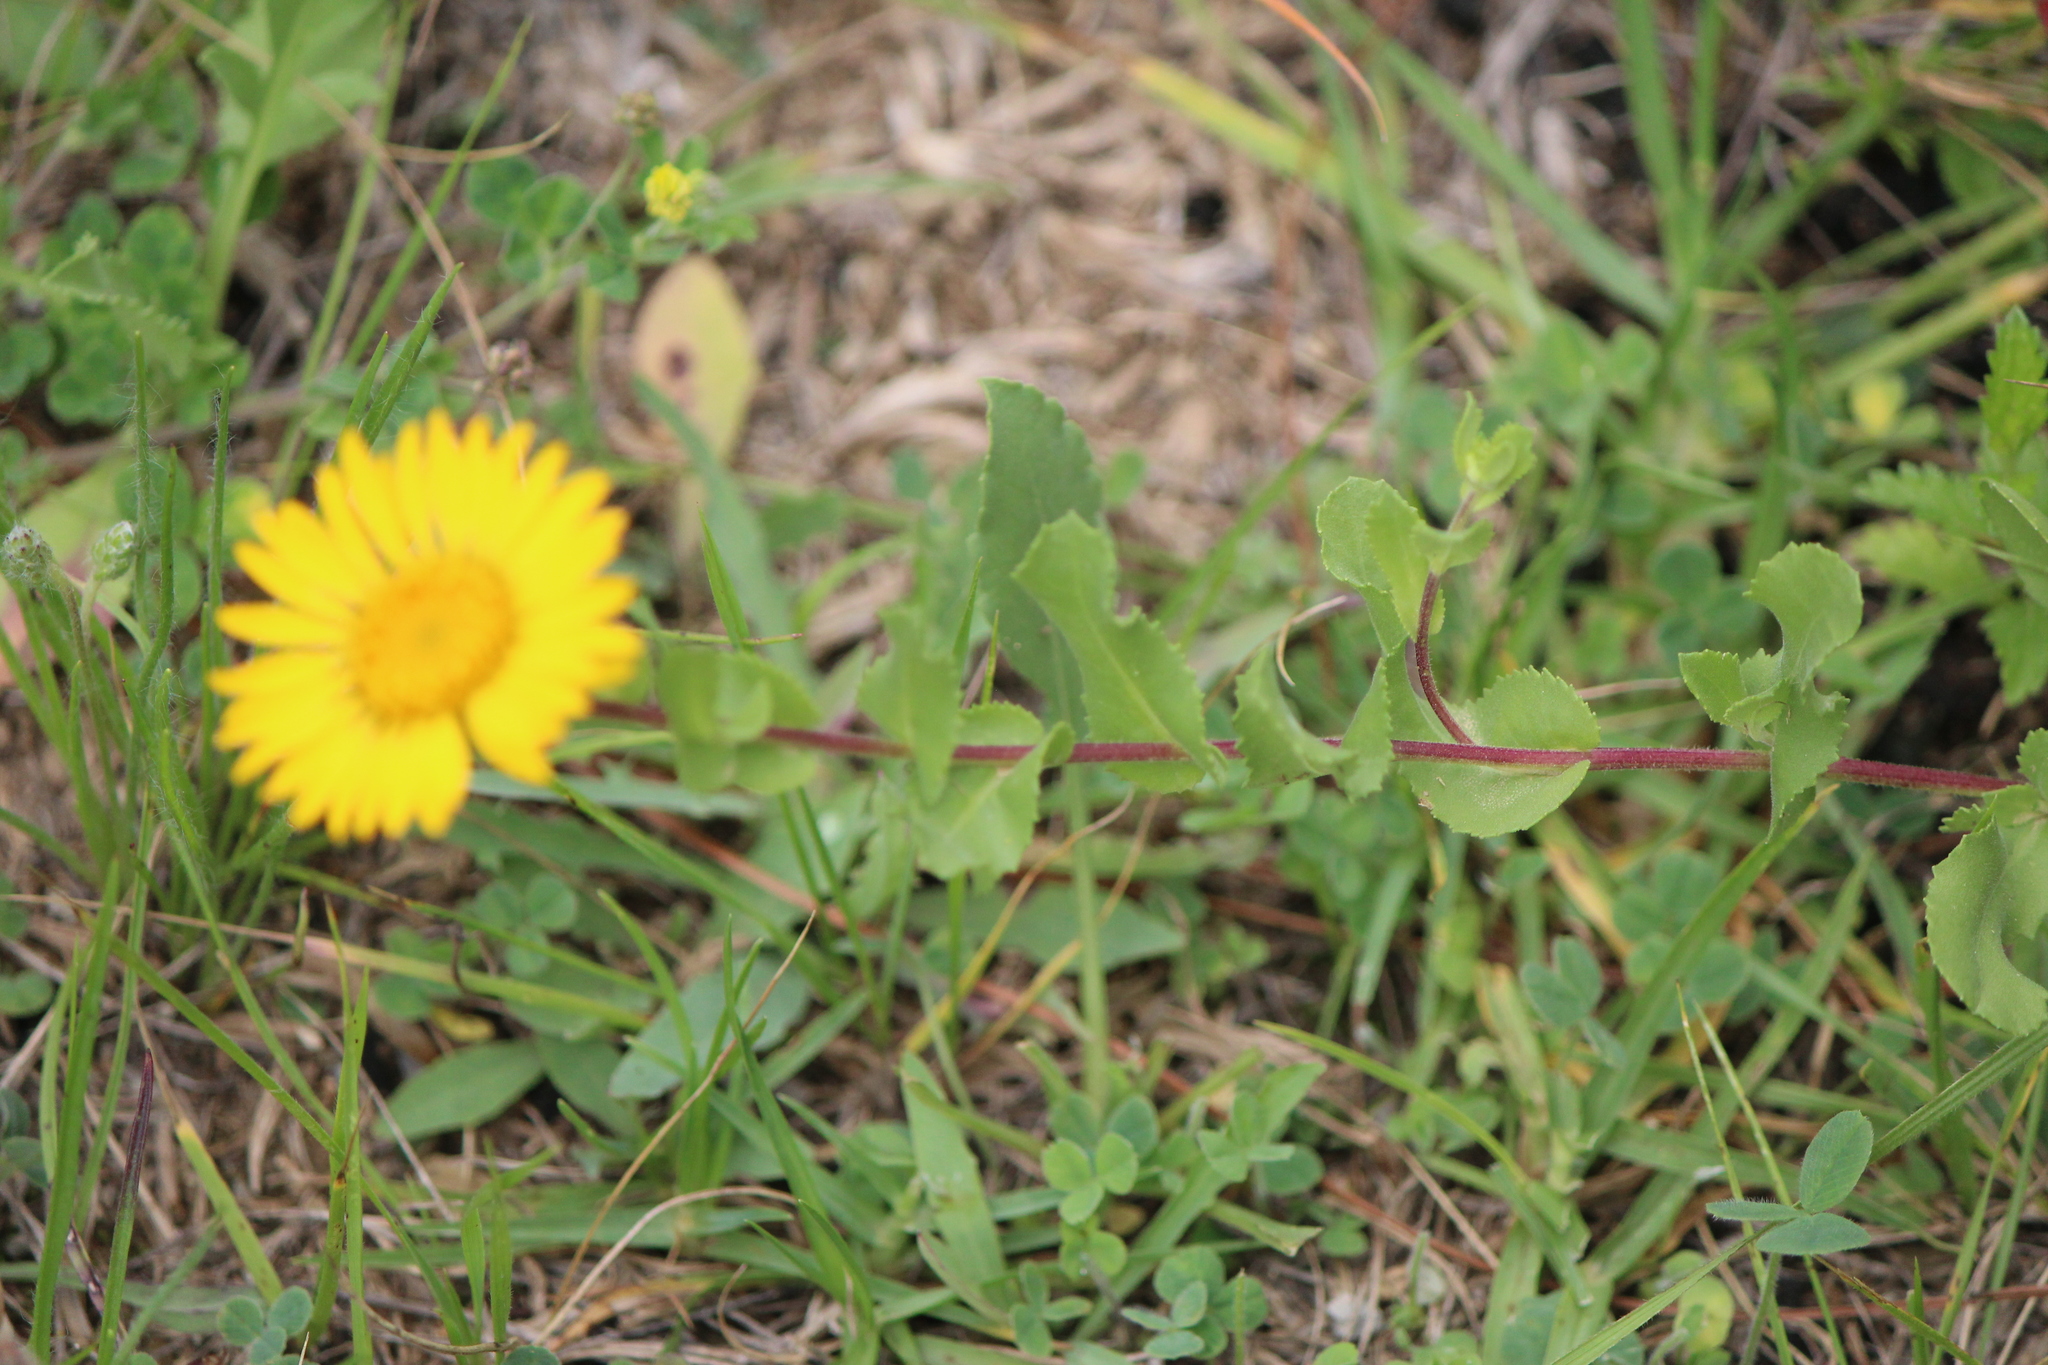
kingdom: Plantae
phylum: Tracheophyta
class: Magnoliopsida
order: Asterales
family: Asteraceae
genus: Grindelia
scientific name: Grindelia subdecurrens
